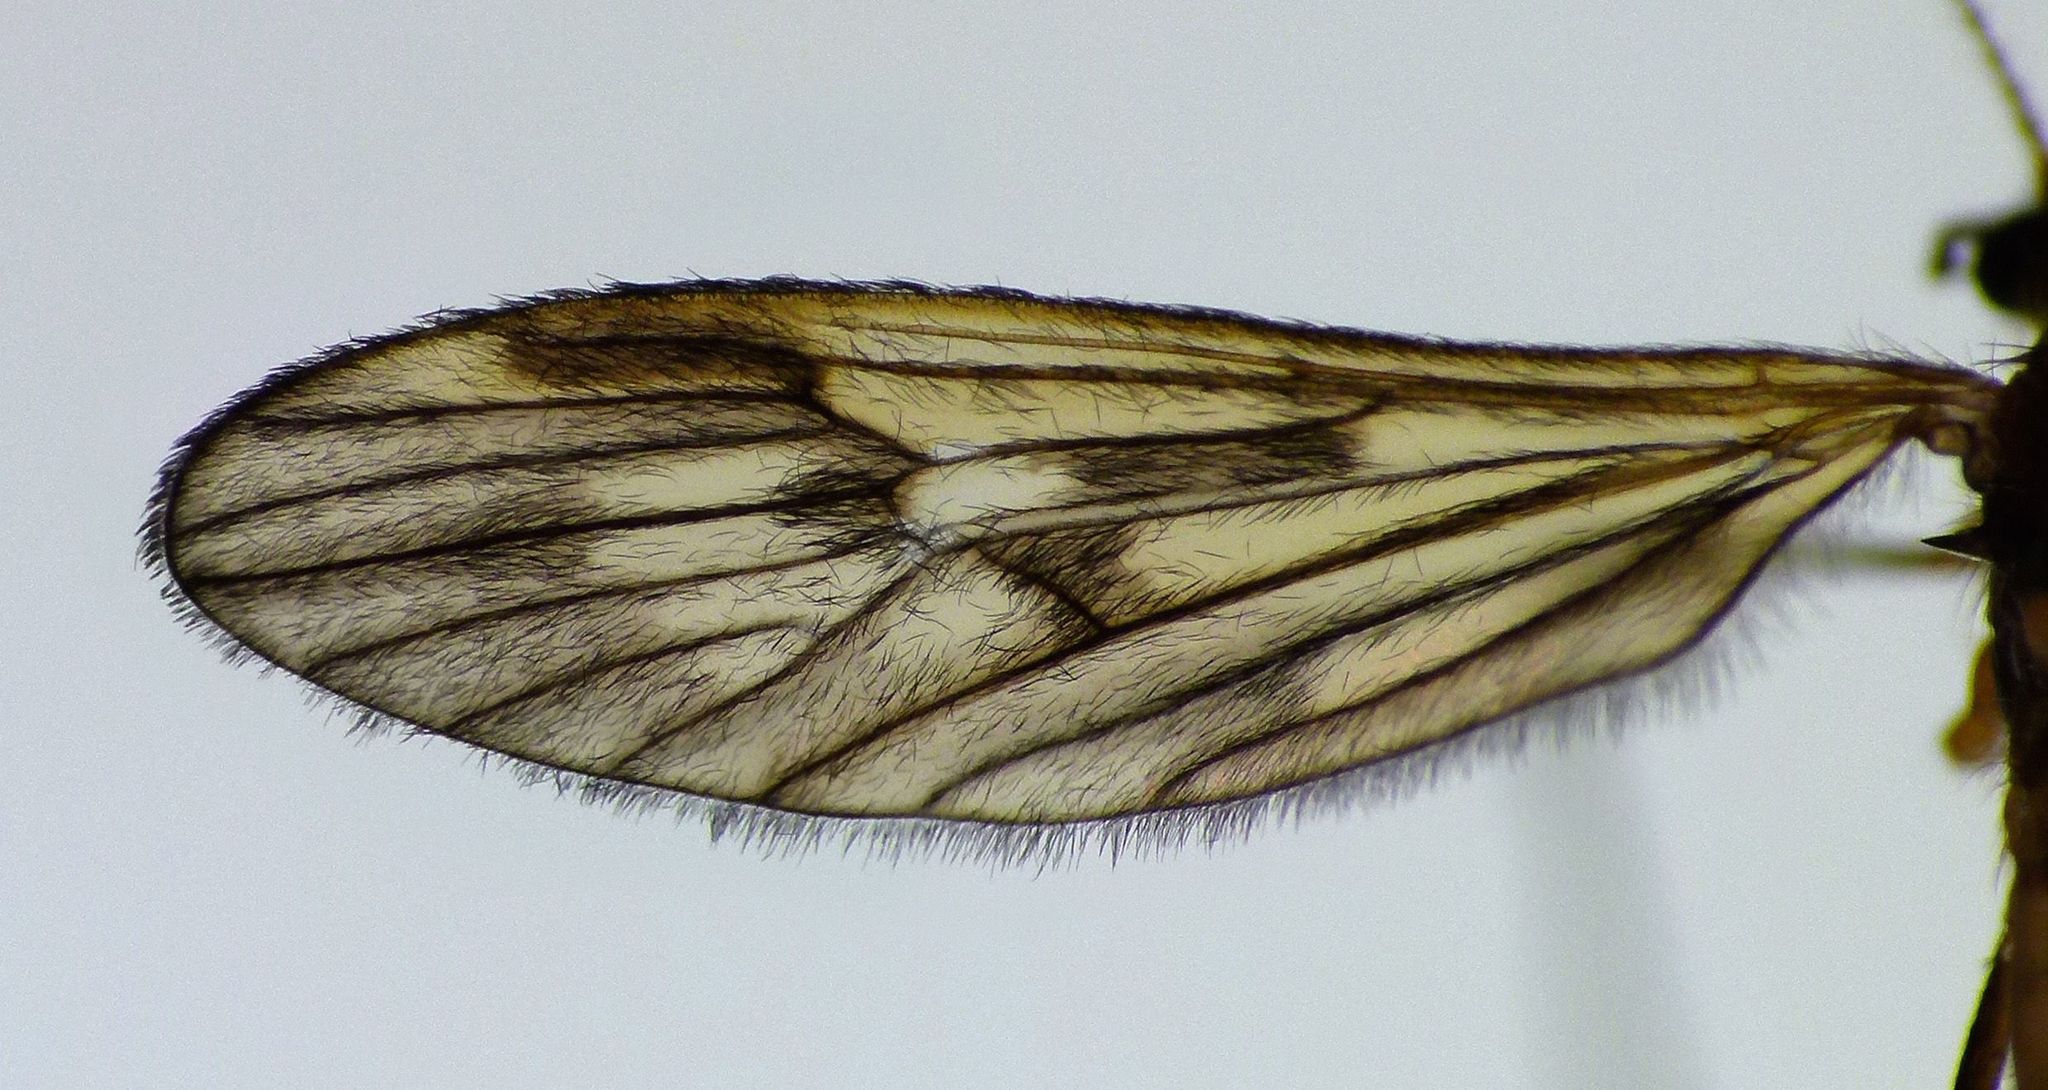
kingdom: Animalia
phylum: Arthropoda
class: Insecta
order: Diptera
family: Limoniidae
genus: Amphineurus
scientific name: Amphineurus fatuus
